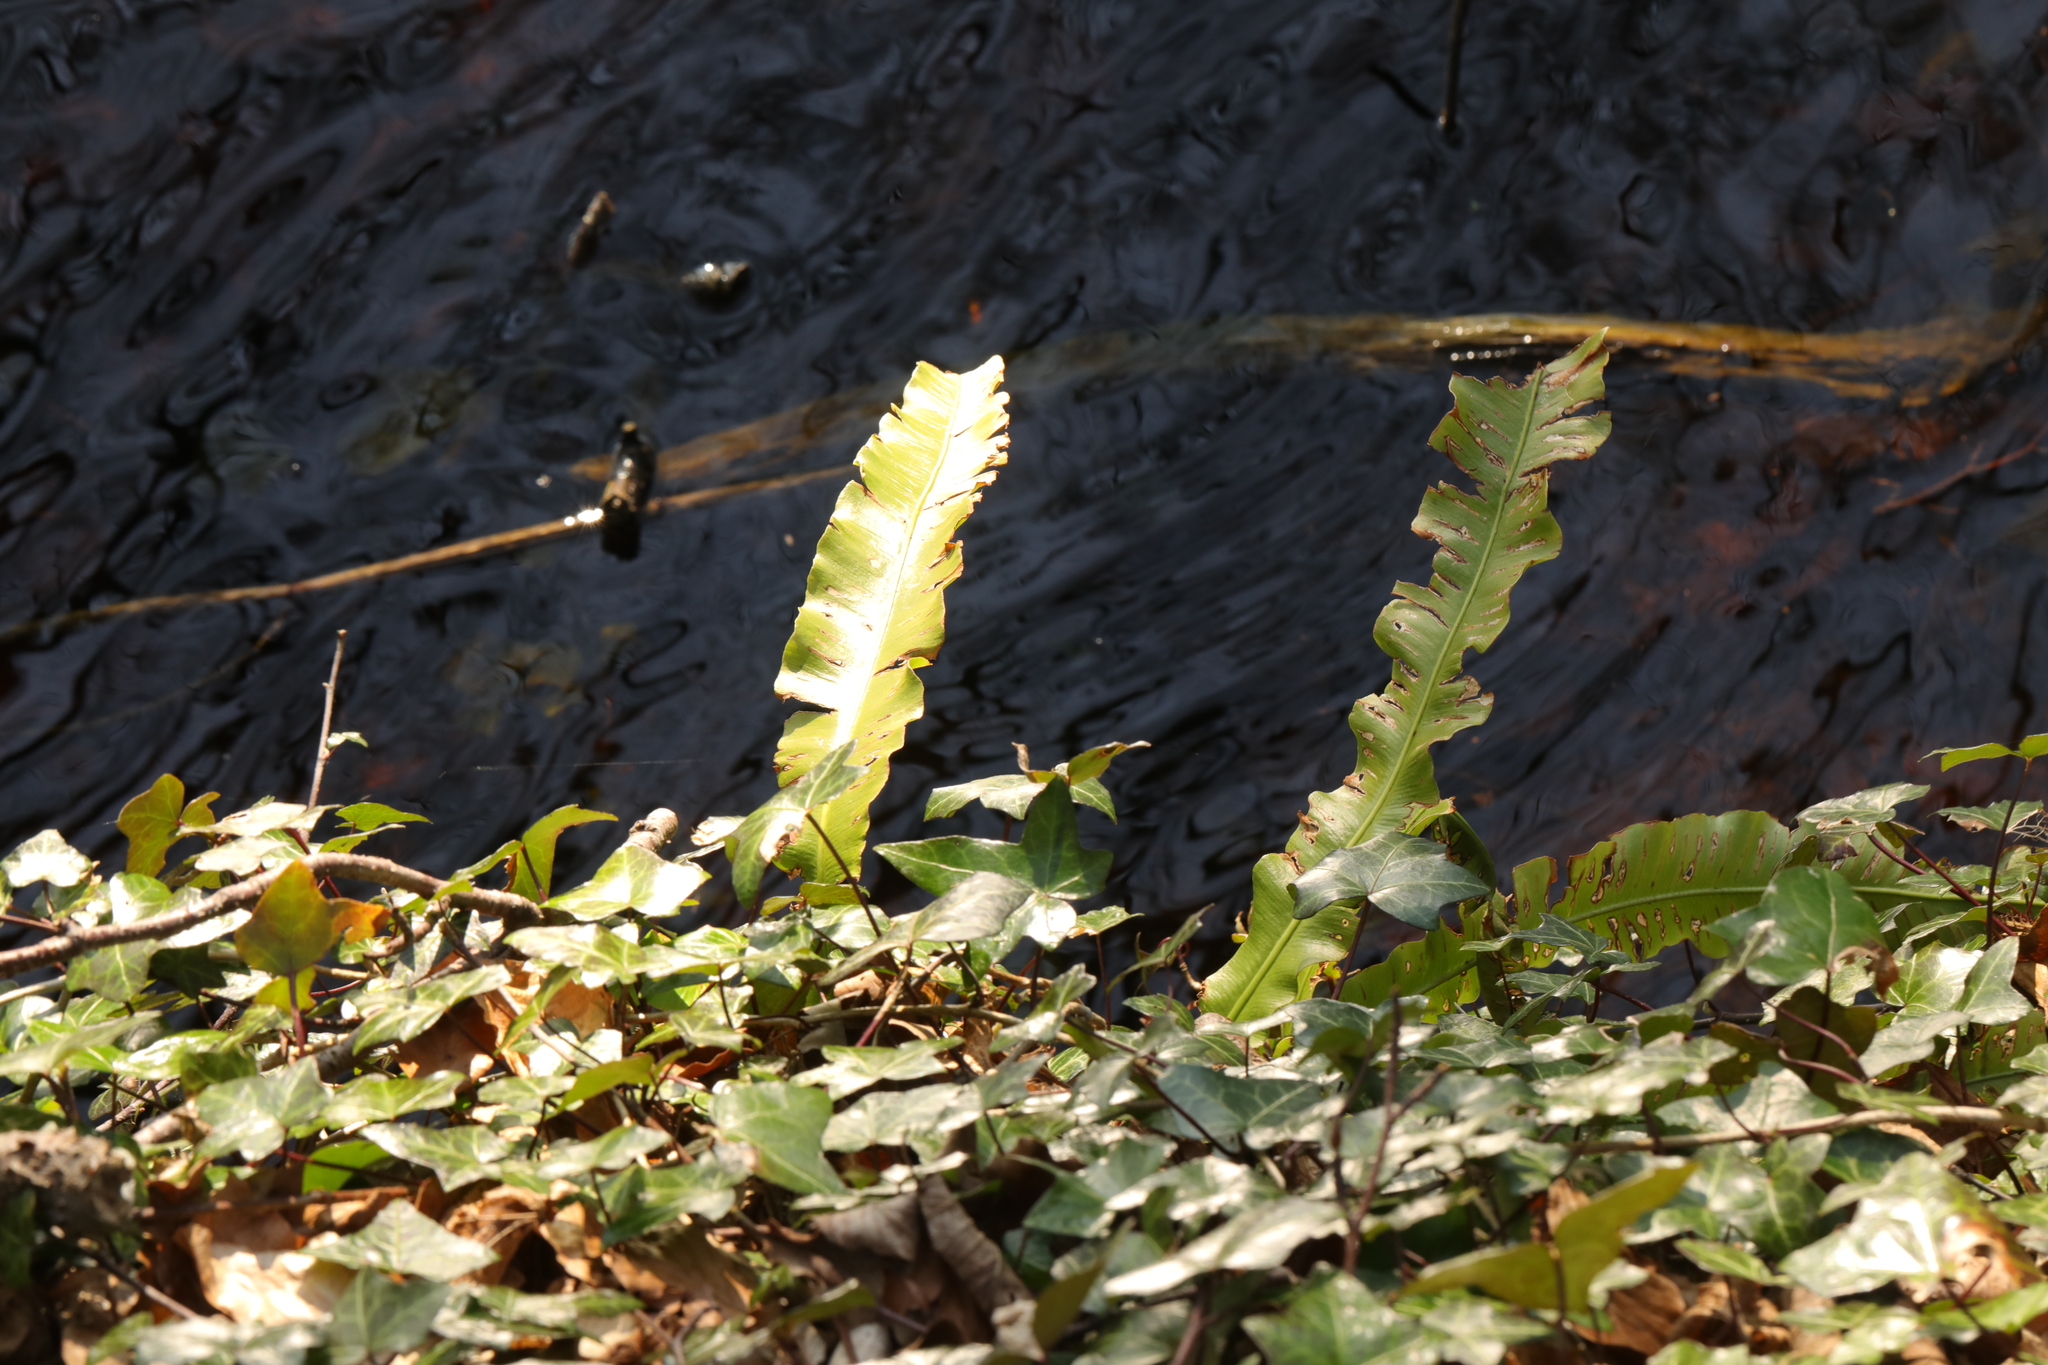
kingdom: Plantae
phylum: Tracheophyta
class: Polypodiopsida
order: Polypodiales
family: Aspleniaceae
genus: Asplenium
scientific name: Asplenium scolopendrium
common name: Hart's-tongue fern
